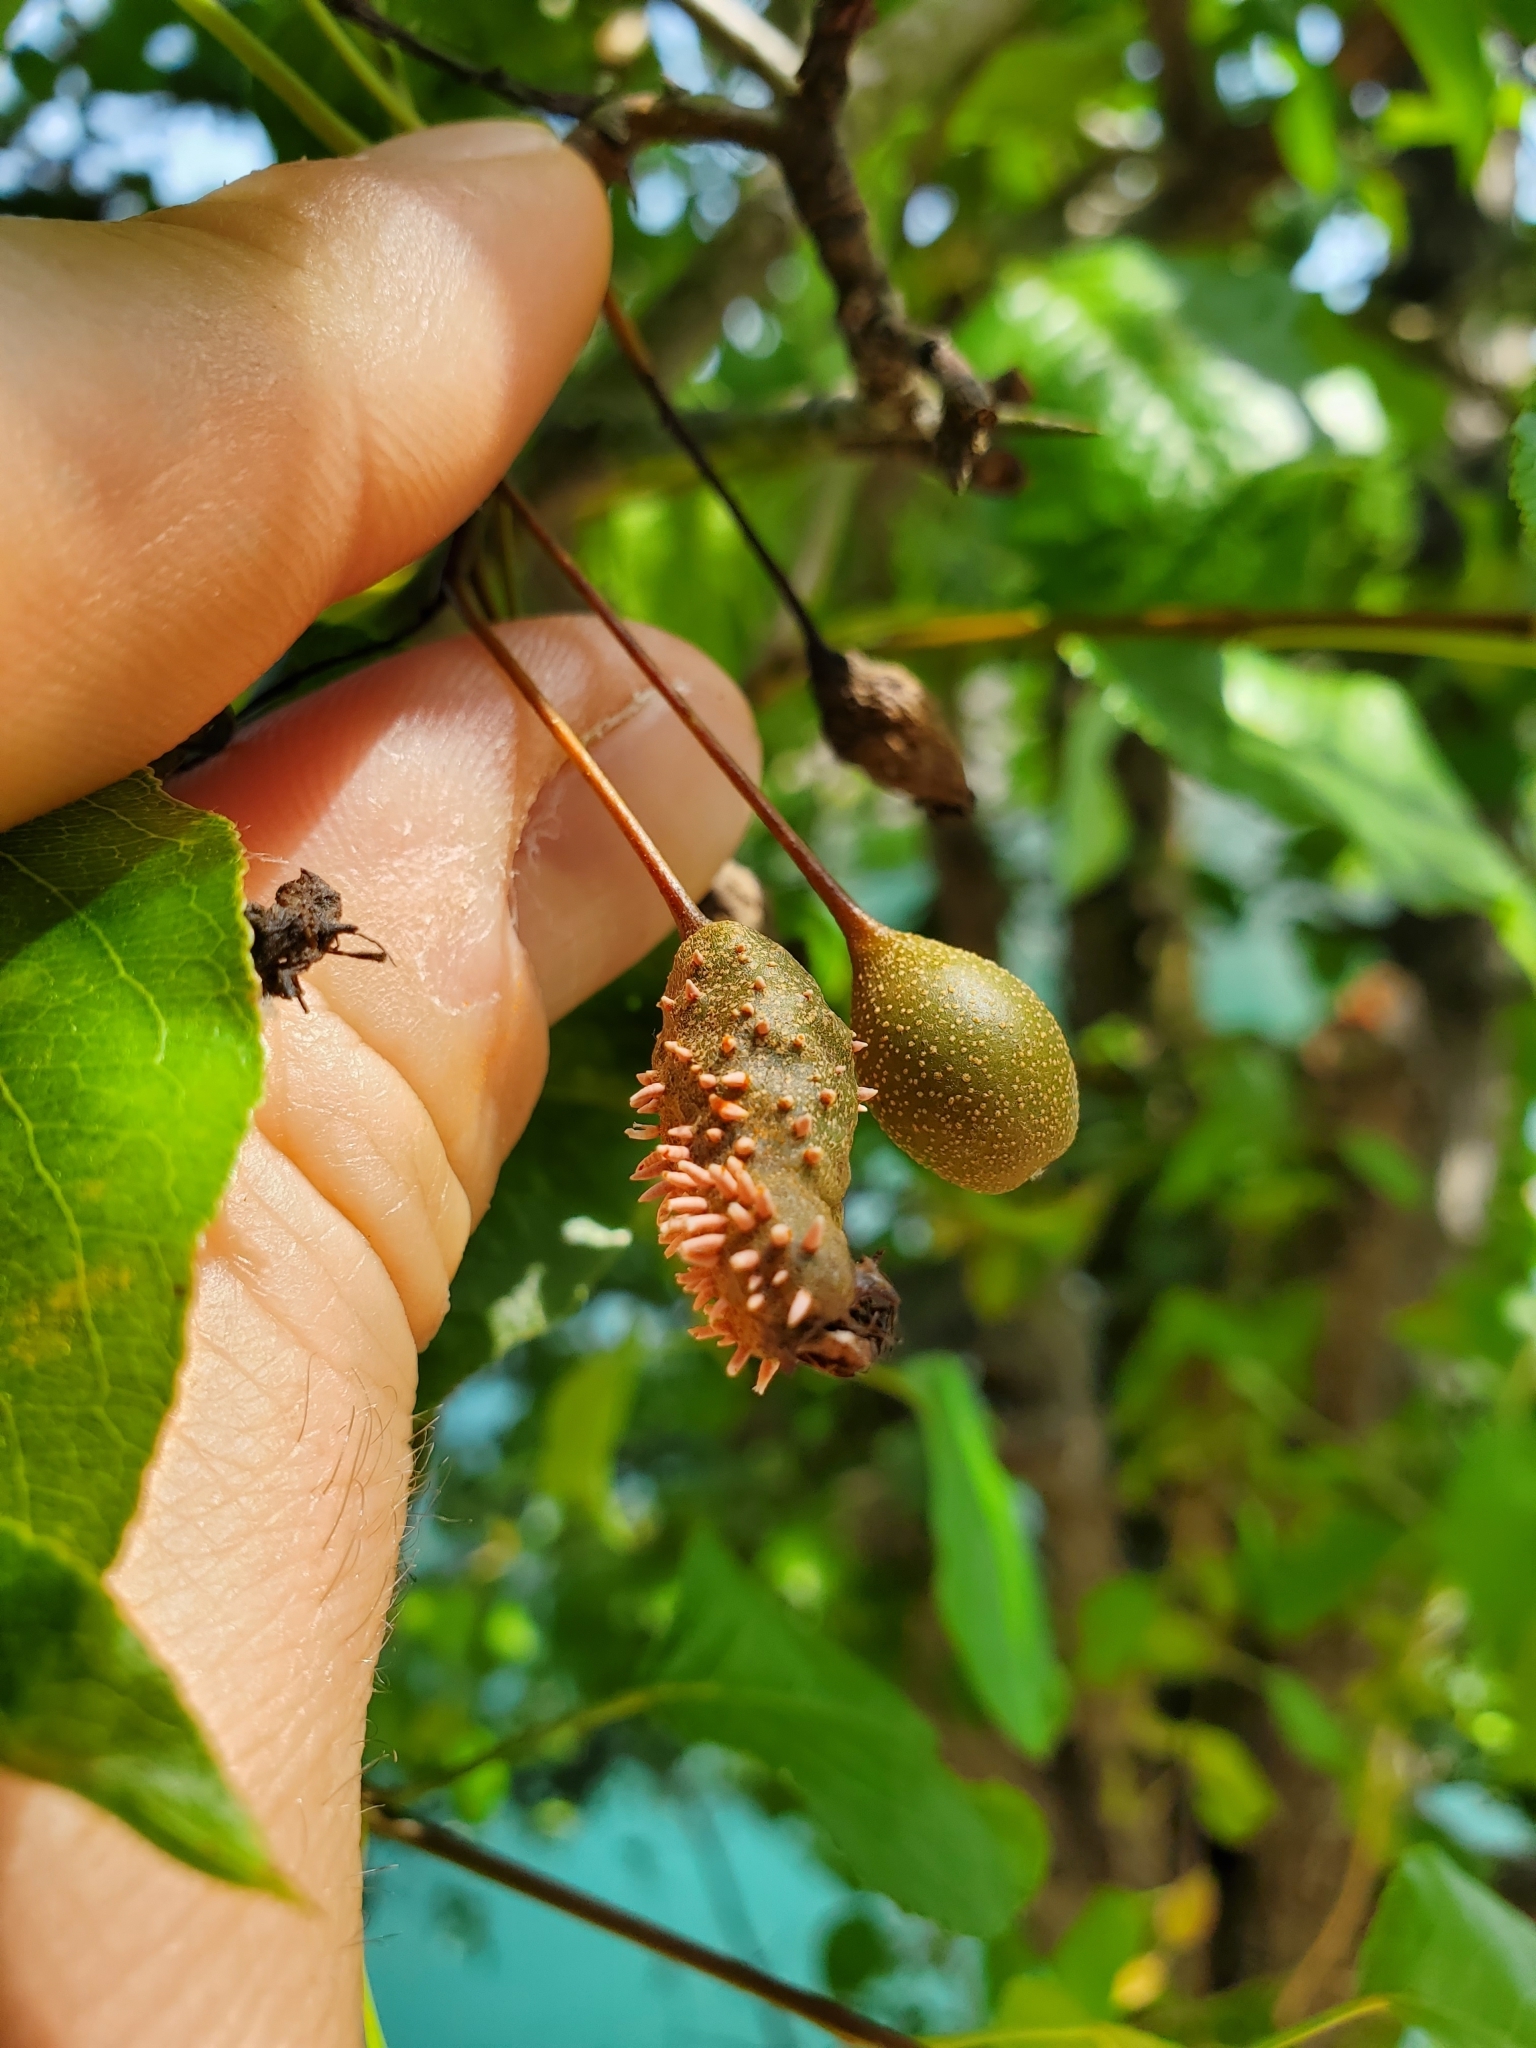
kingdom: Fungi
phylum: Basidiomycota
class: Pucciniomycetes
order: Pucciniales
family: Gymnosporangiaceae
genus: Gymnosporangium
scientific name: Gymnosporangium clavipes
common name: Quince rust
